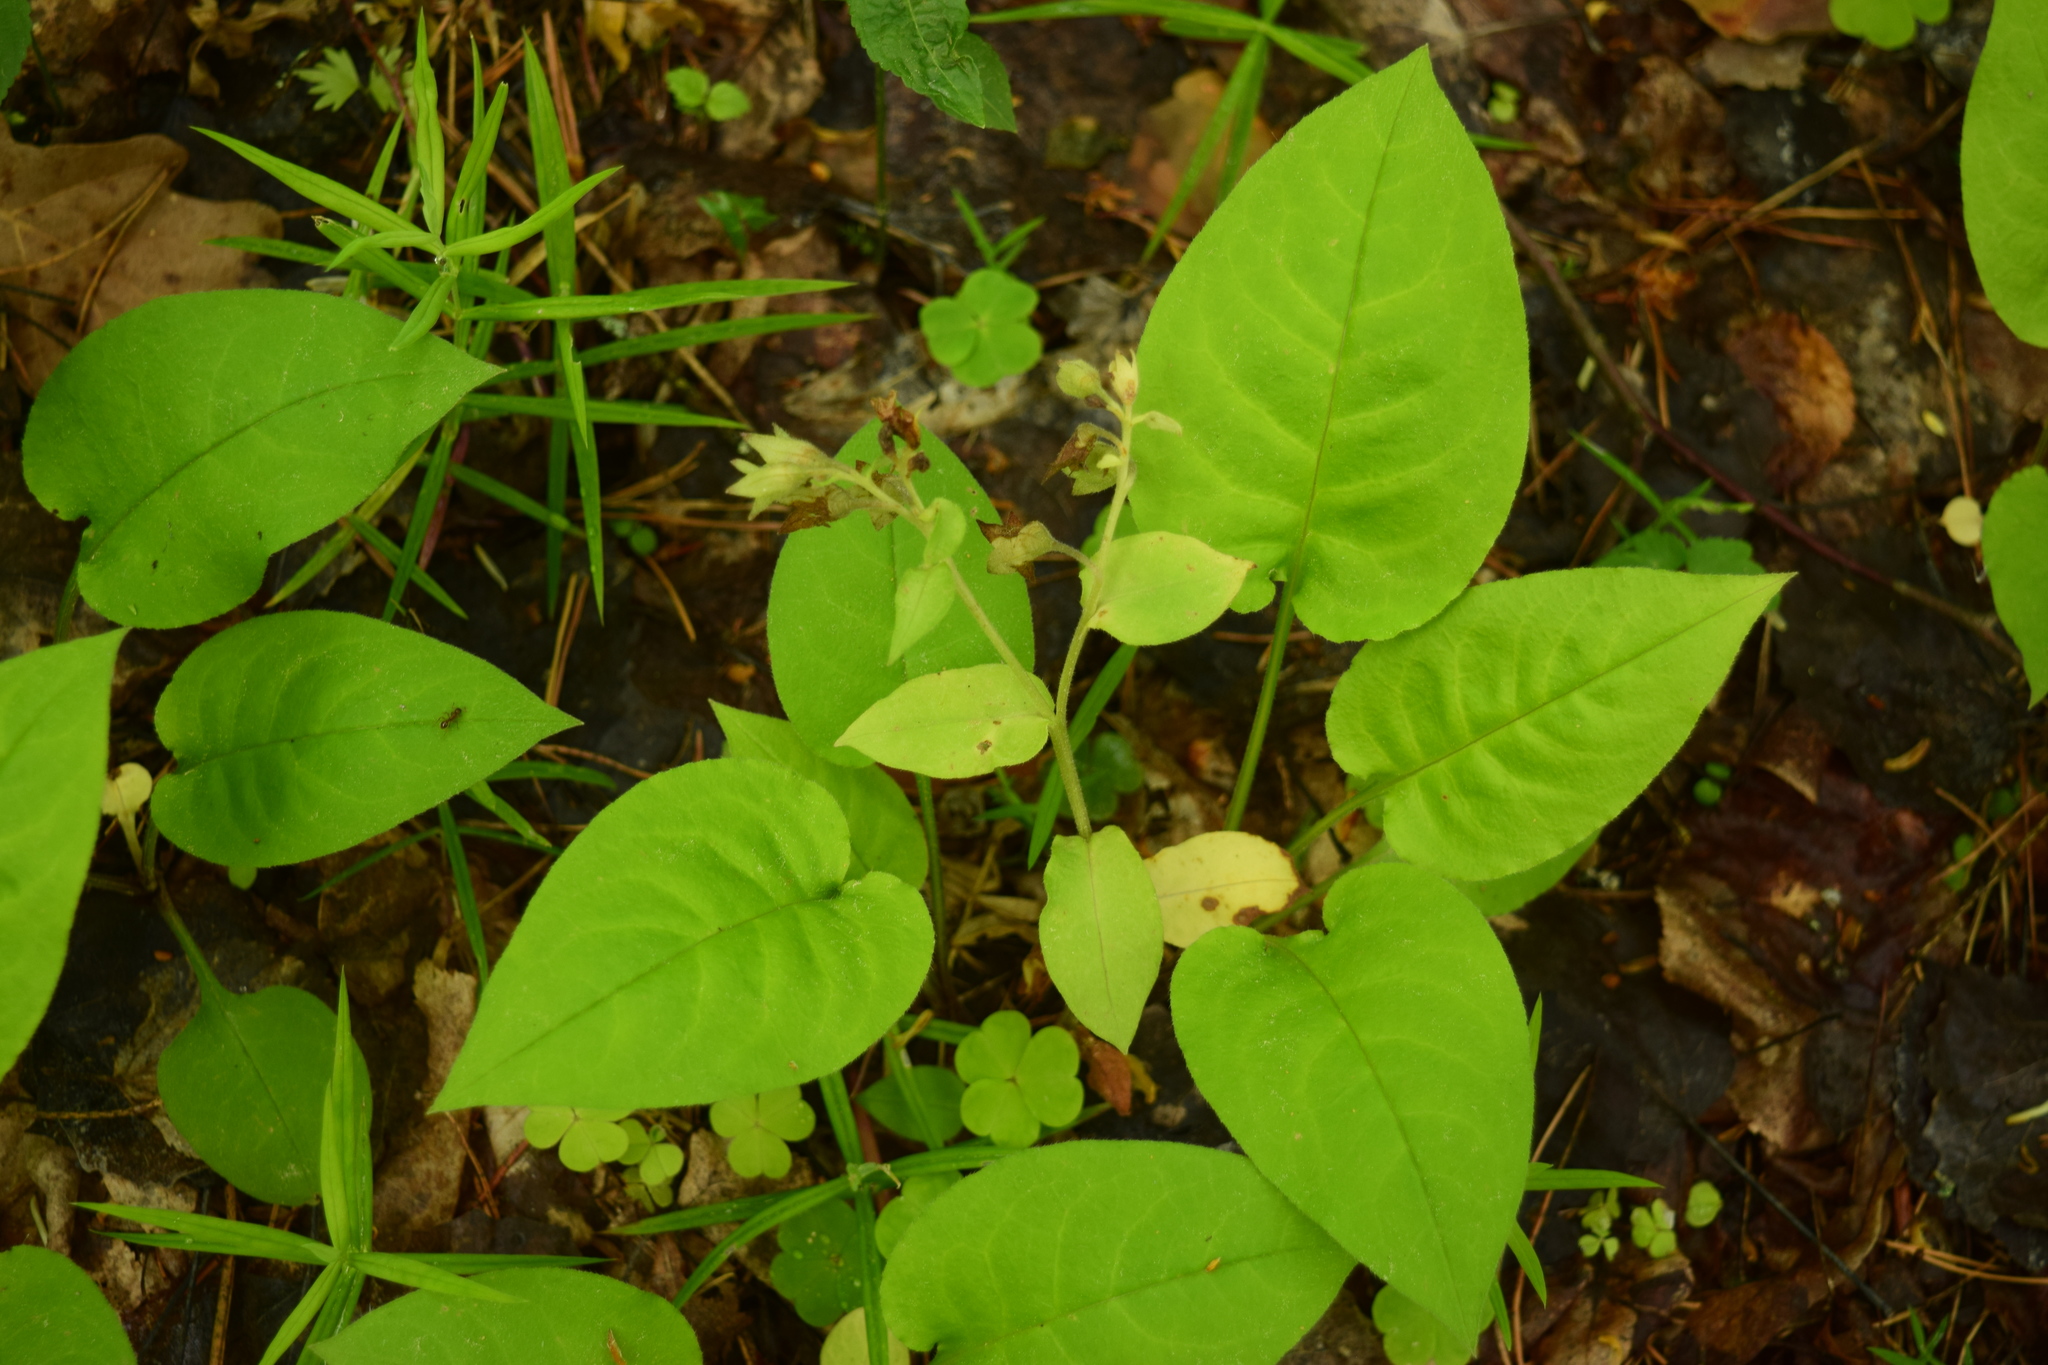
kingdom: Plantae
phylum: Tracheophyta
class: Magnoliopsida
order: Boraginales
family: Boraginaceae
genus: Pulmonaria
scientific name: Pulmonaria obscura
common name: Suffolk lungwort
